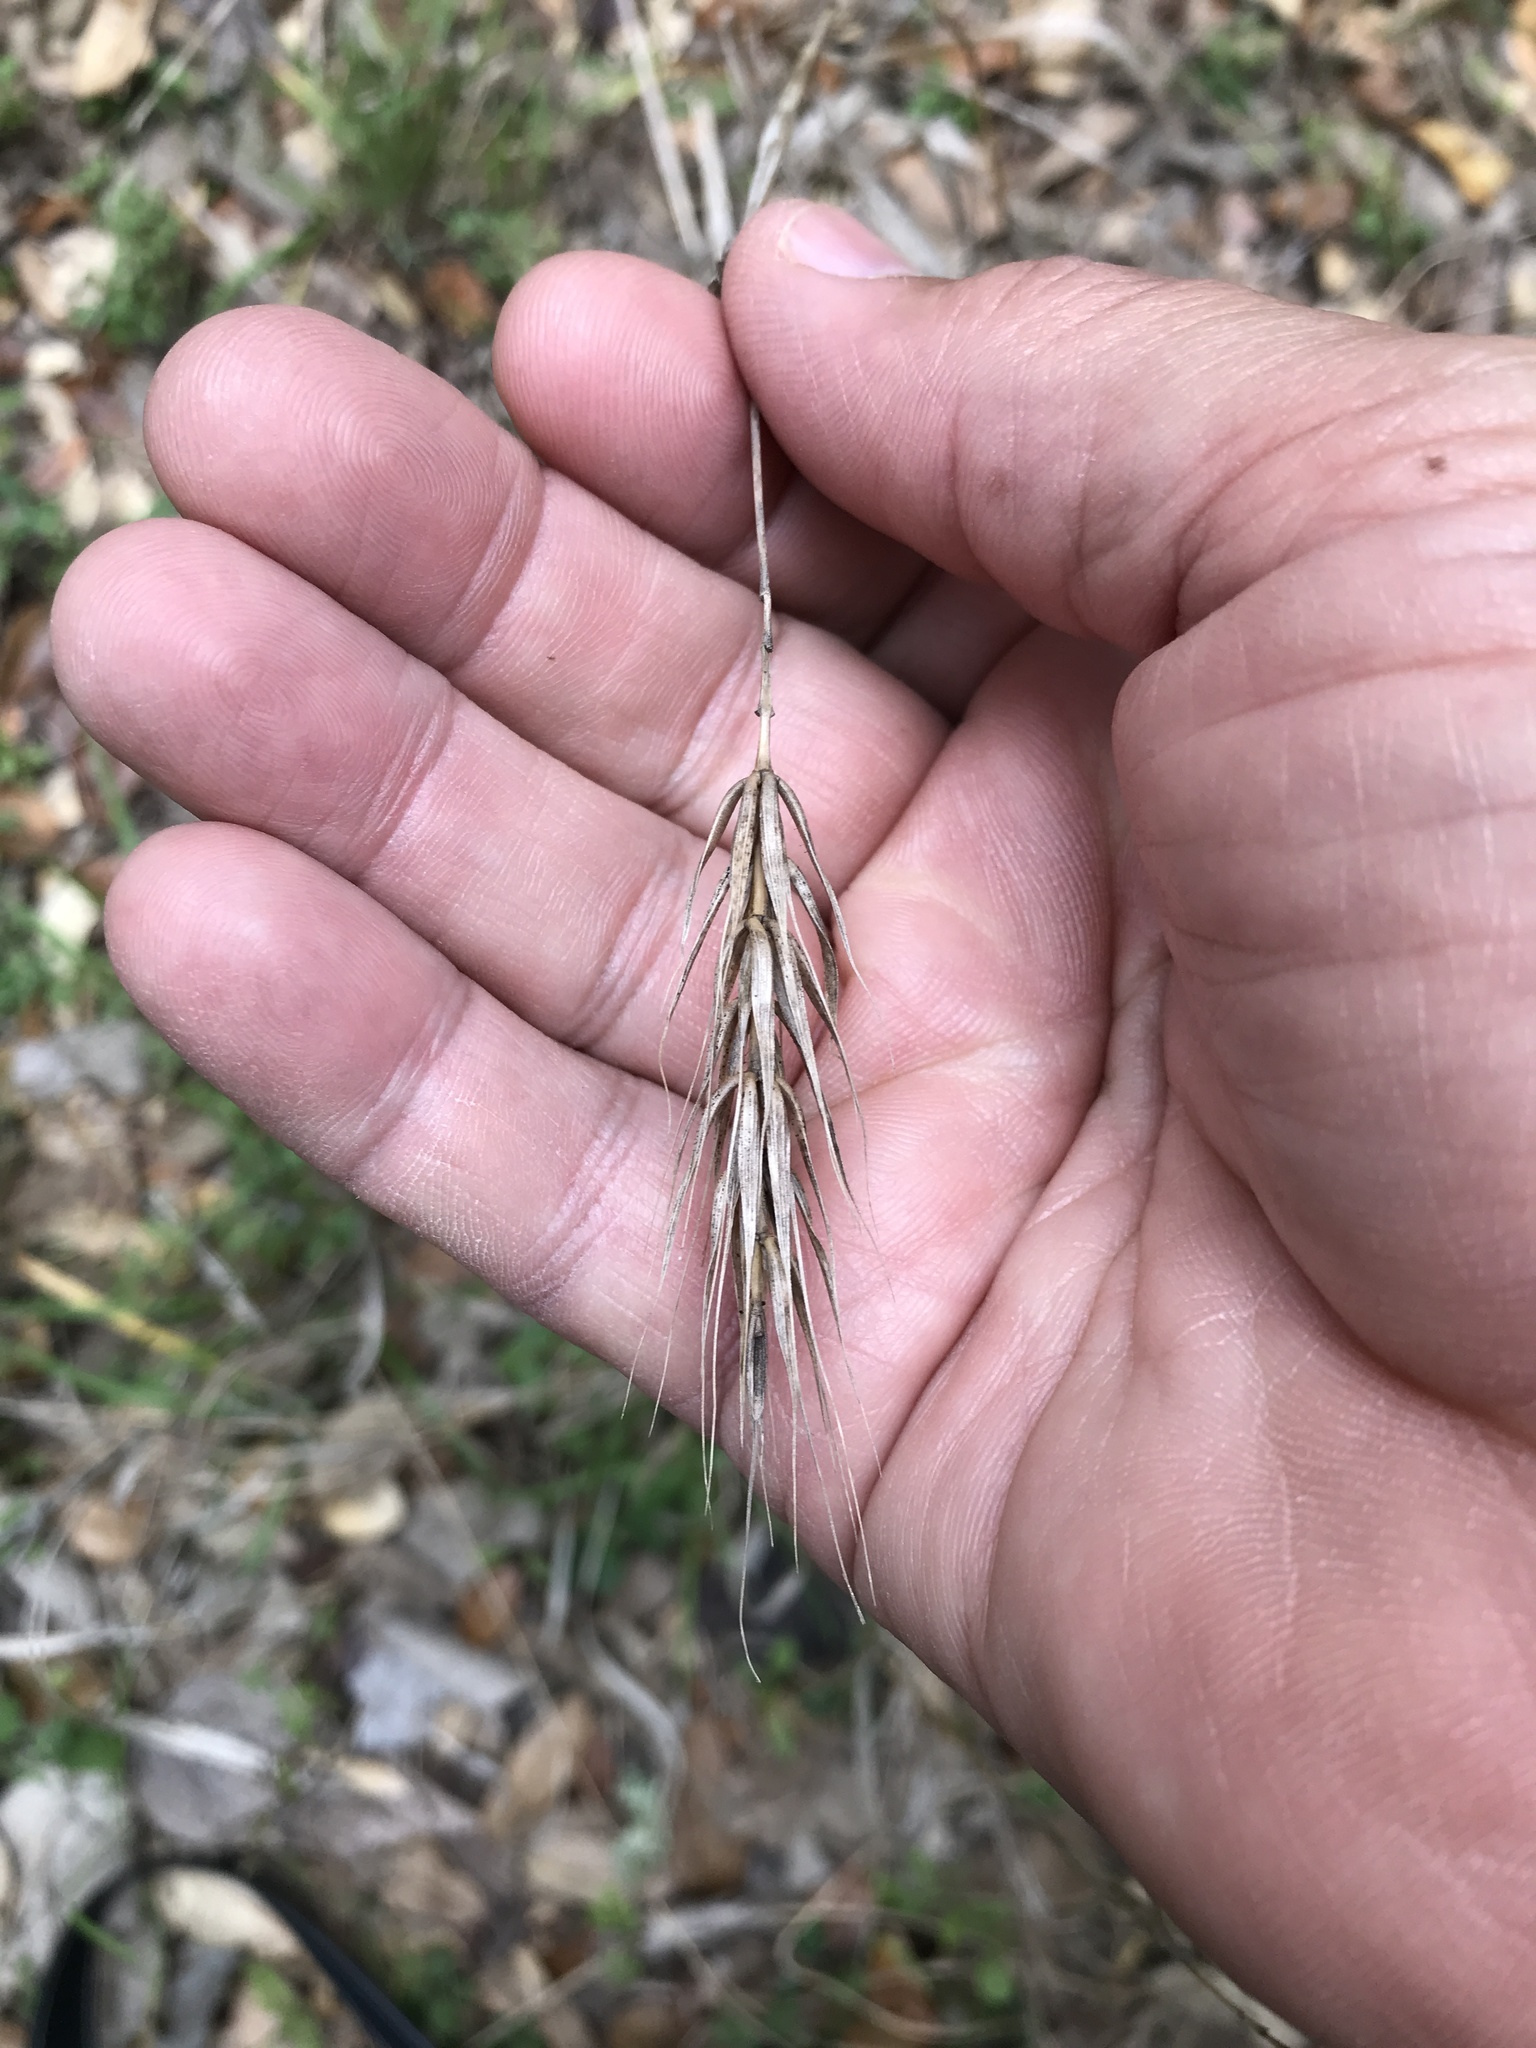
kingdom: Plantae
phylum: Tracheophyta
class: Liliopsida
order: Poales
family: Poaceae
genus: Elymus
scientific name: Elymus virginicus
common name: Common eastern wildrye
